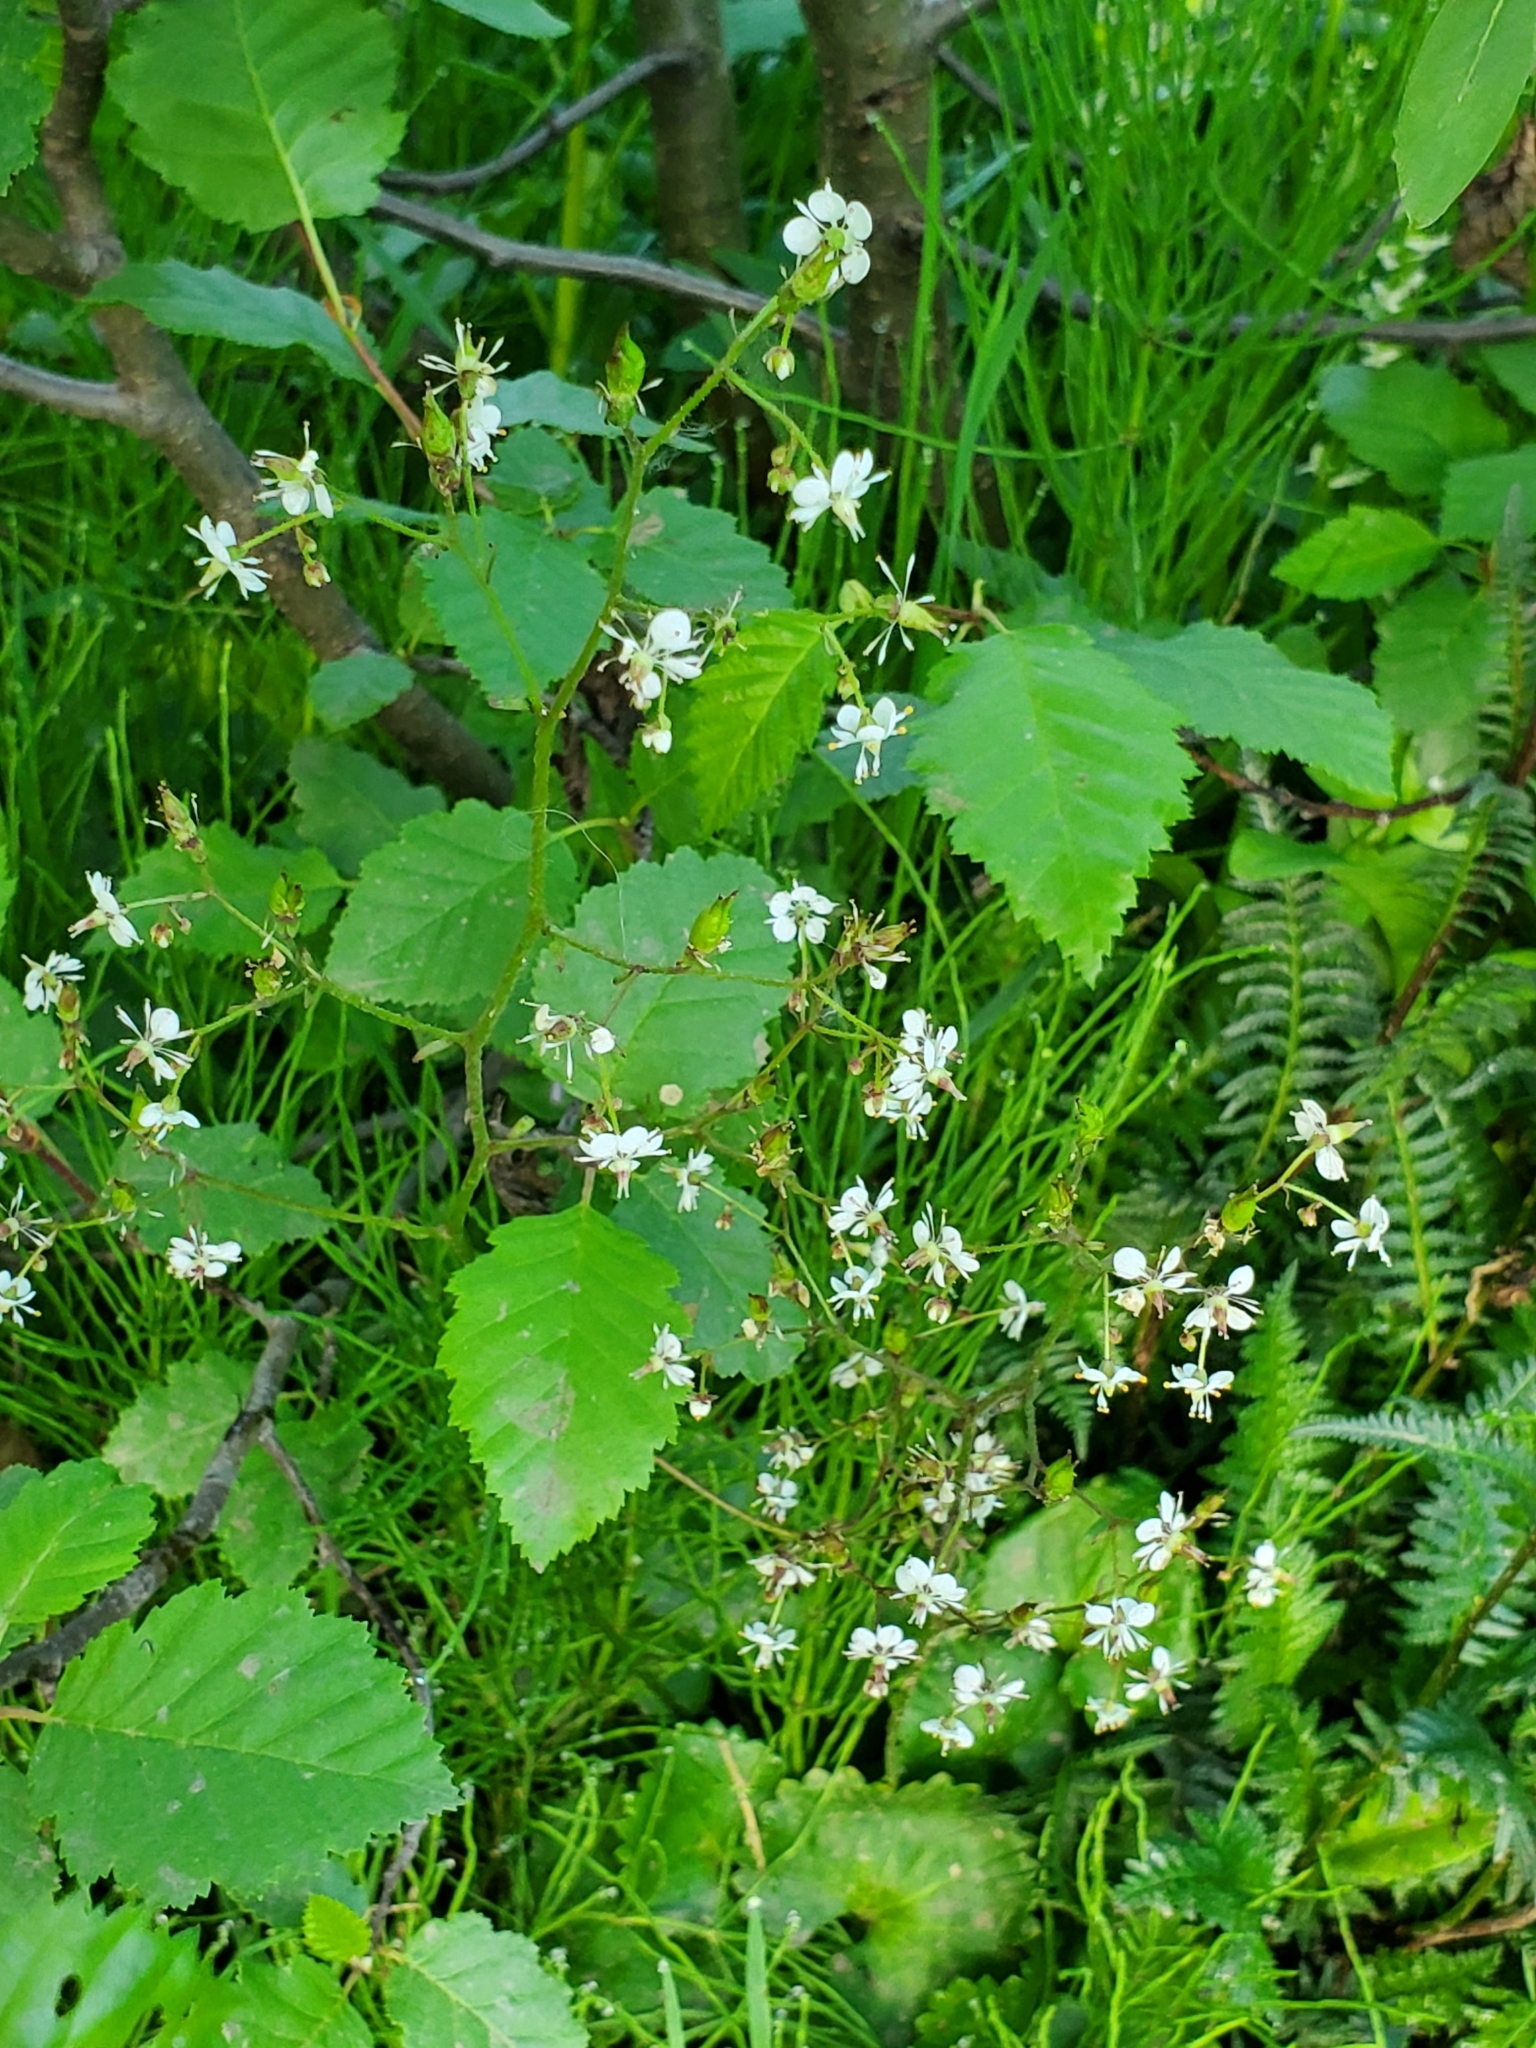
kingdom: Plantae
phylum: Tracheophyta
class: Magnoliopsida
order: Saxifragales
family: Saxifragaceae
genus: Micranthes
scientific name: Micranthes odontoloma
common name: Brook saxifrage
